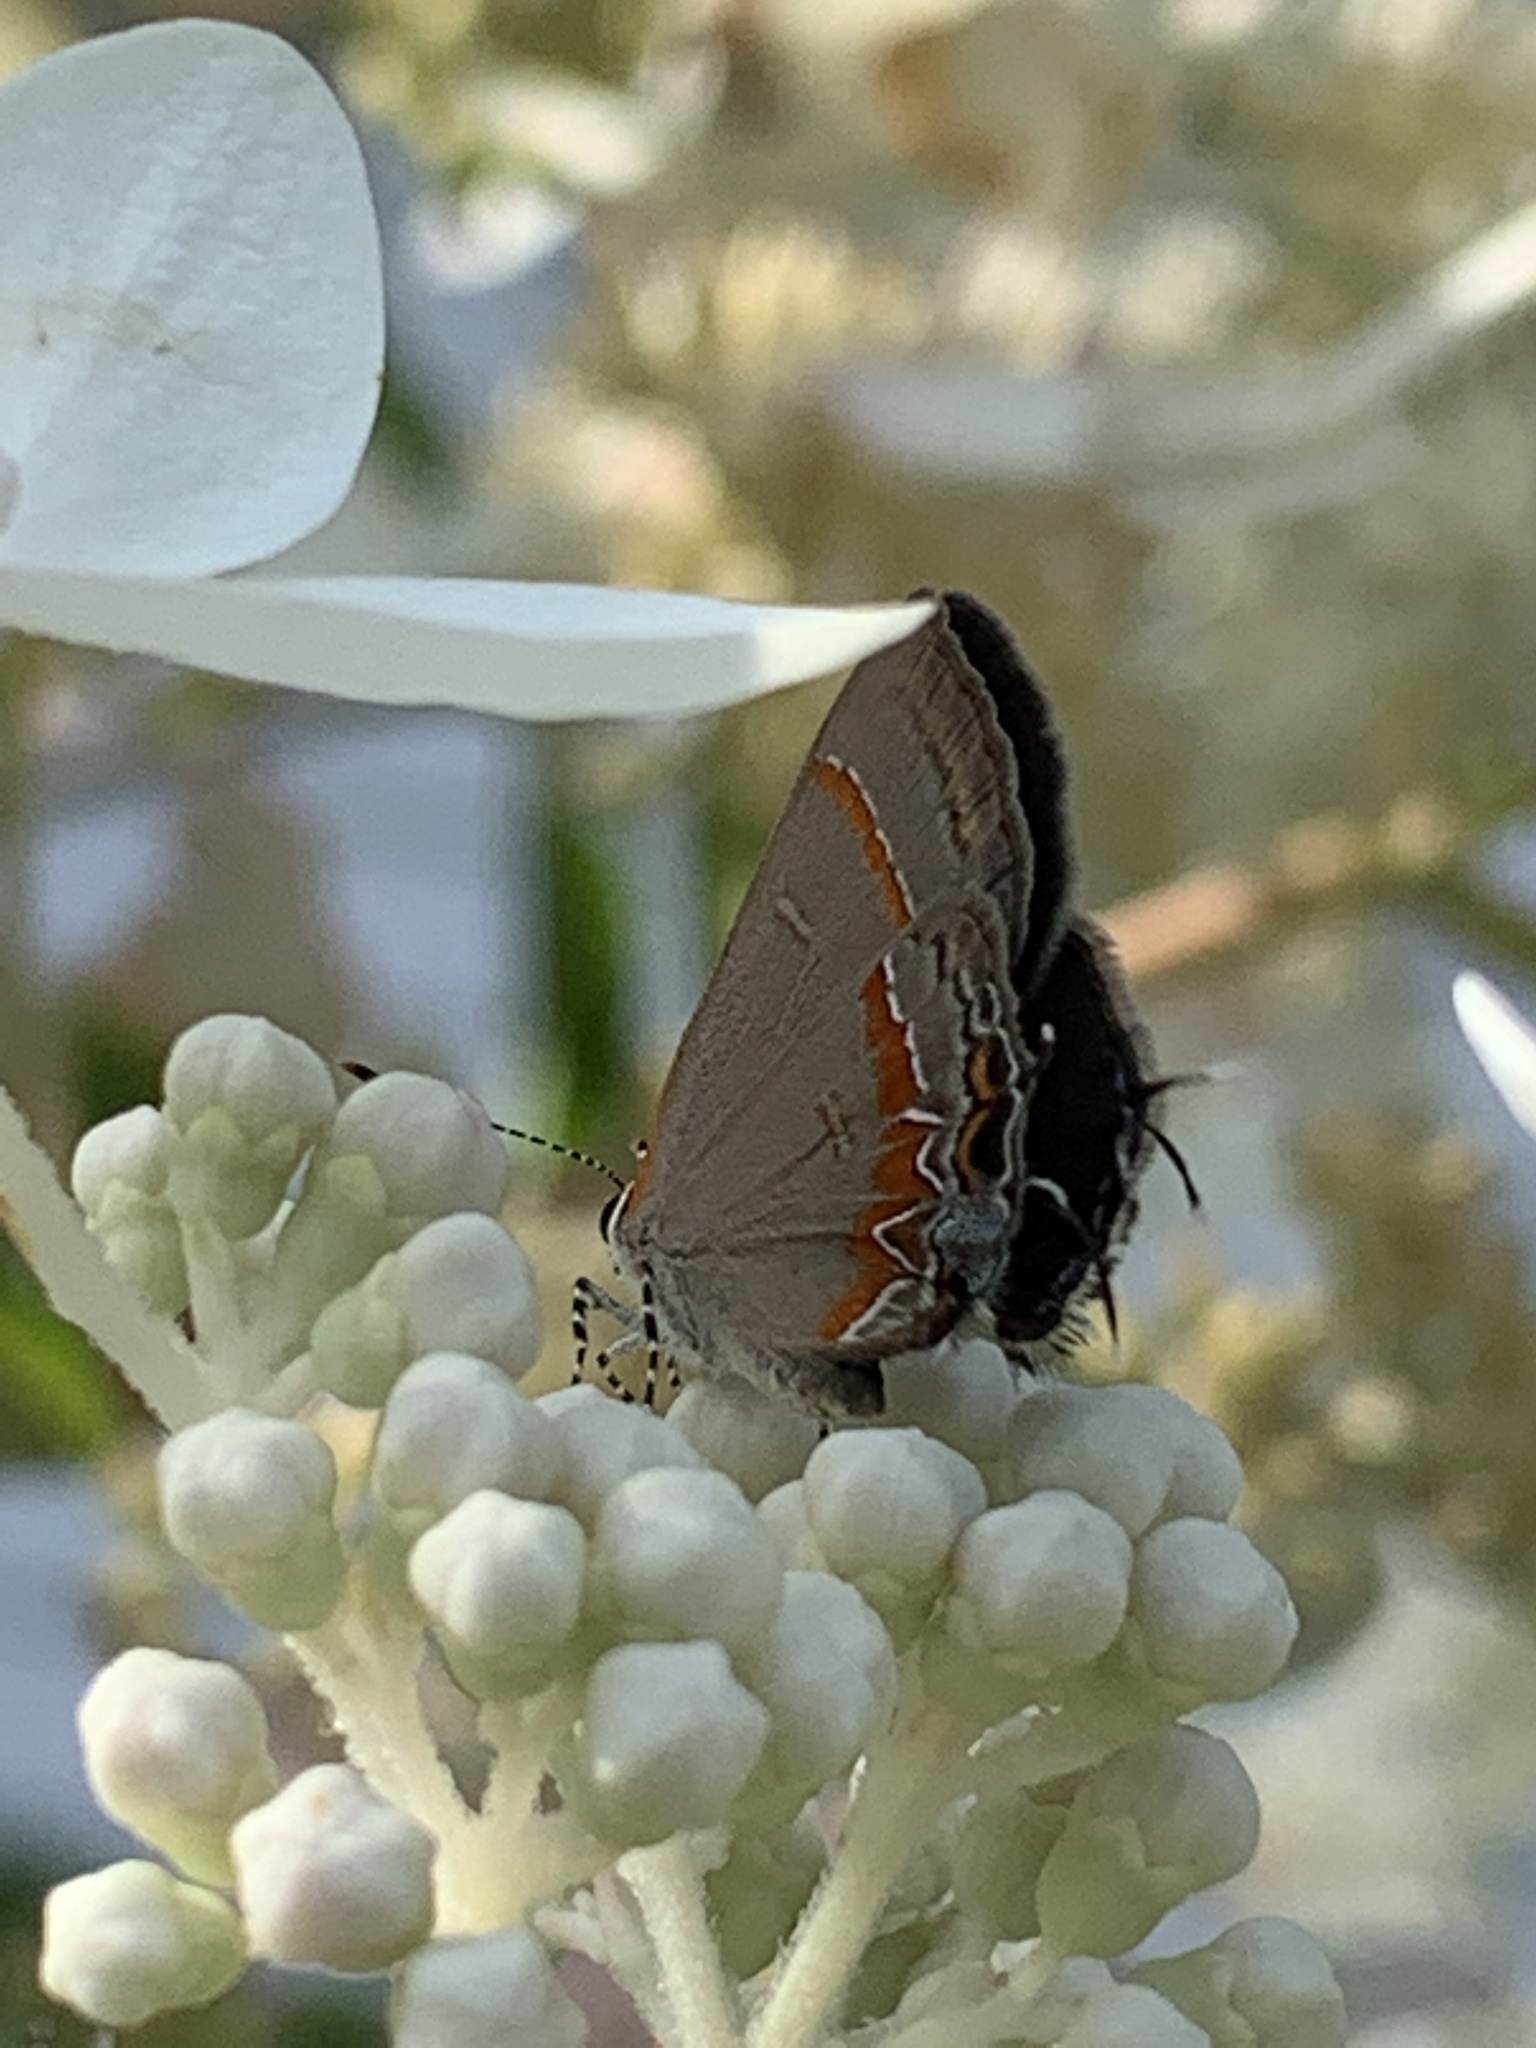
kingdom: Animalia
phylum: Arthropoda
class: Insecta
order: Lepidoptera
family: Lycaenidae
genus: Calycopis
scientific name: Calycopis cecrops
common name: Red-banded hairstreak
